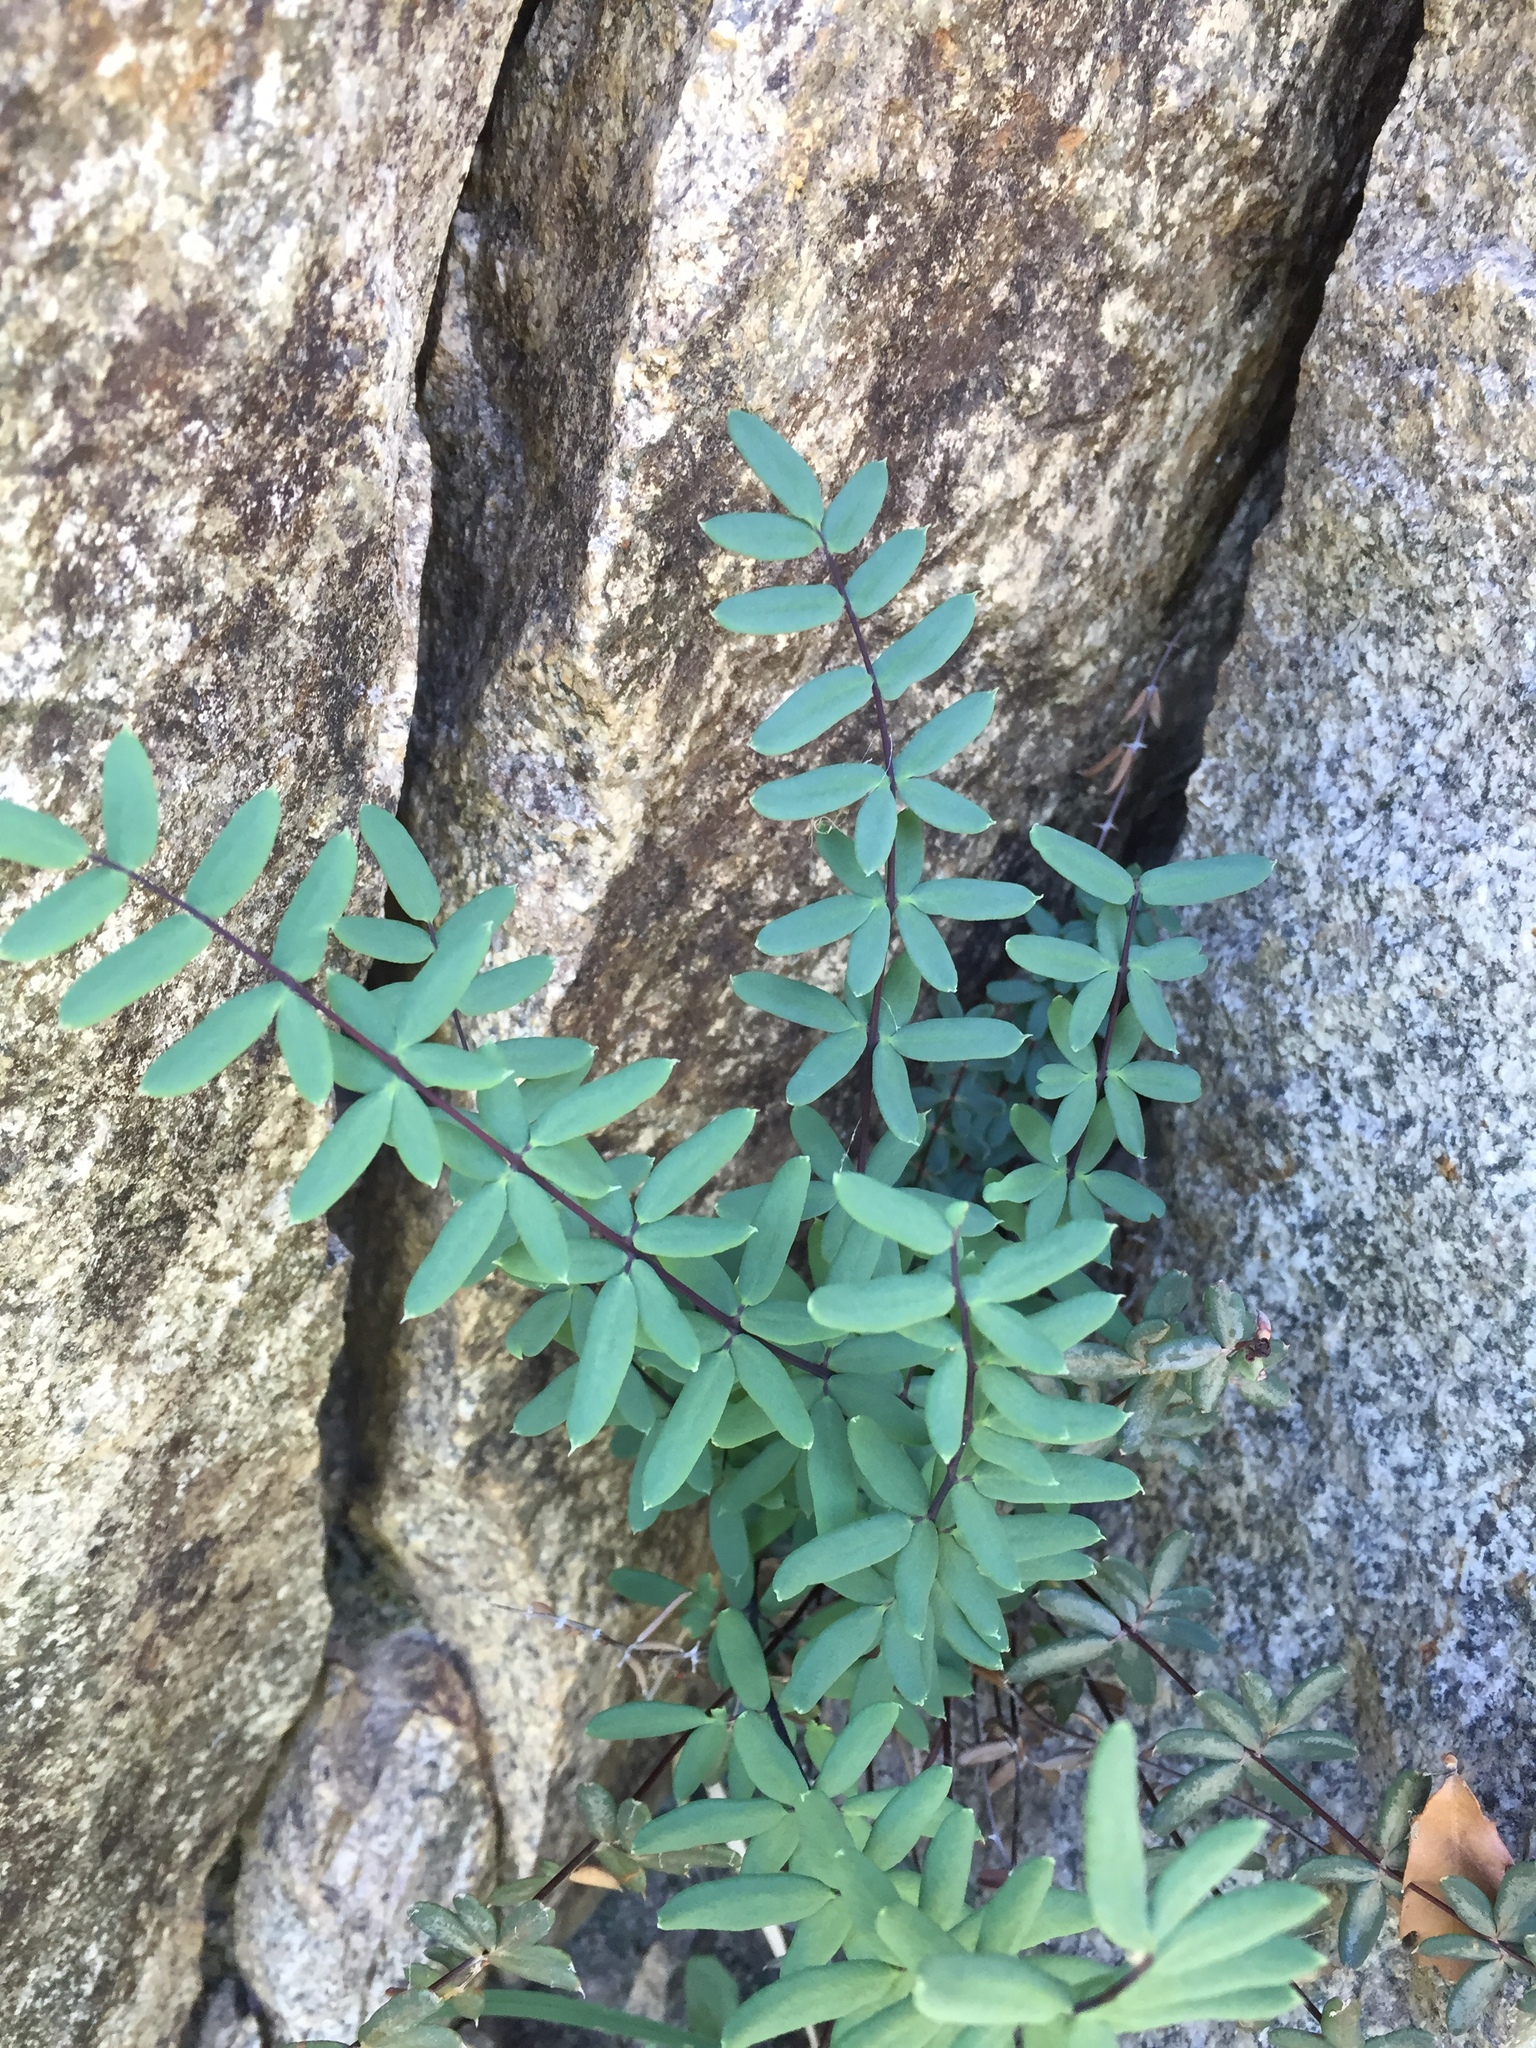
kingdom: Plantae
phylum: Tracheophyta
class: Polypodiopsida
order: Polypodiales
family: Pteridaceae
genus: Pellaea
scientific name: Pellaea wrightiana
